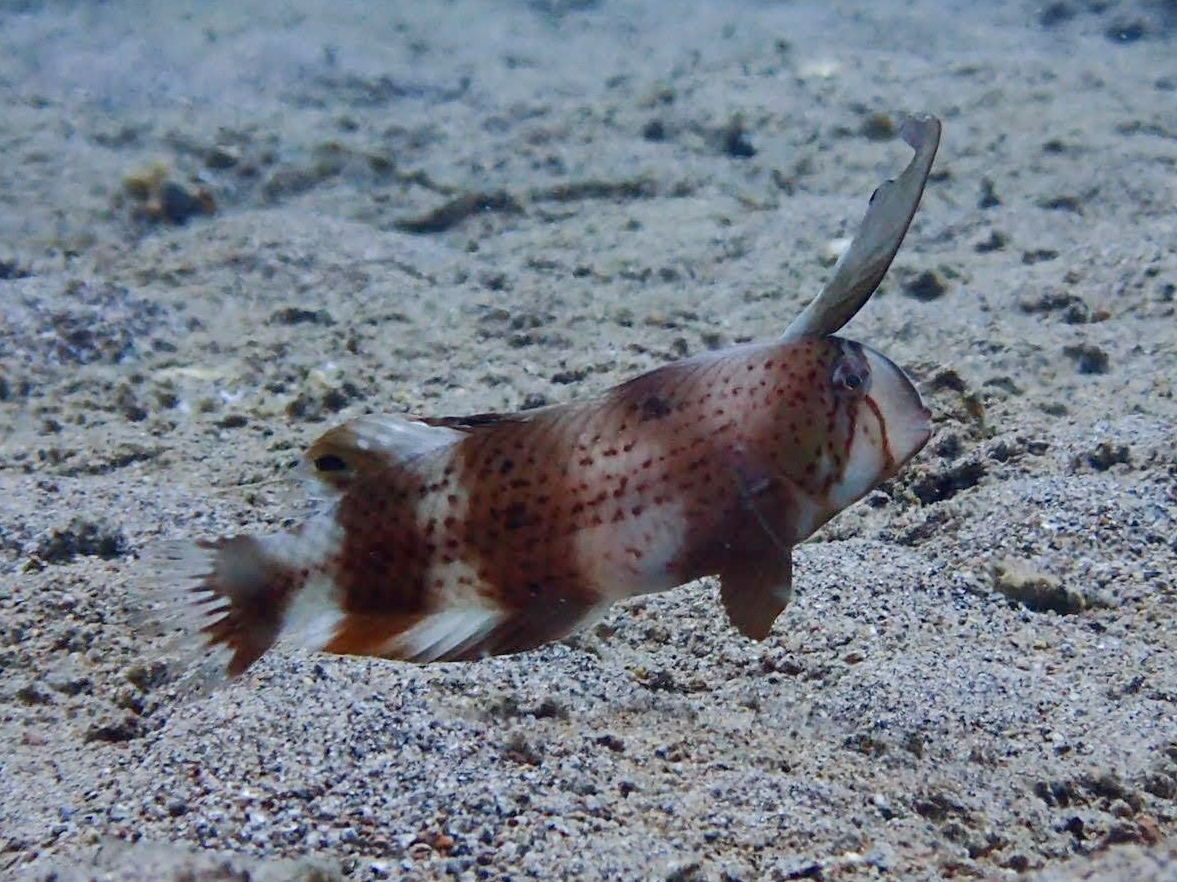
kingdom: Animalia
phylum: Chordata
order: Perciformes
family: Labridae
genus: Iniistius
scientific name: Iniistius pavo
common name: Peacock wrasse
